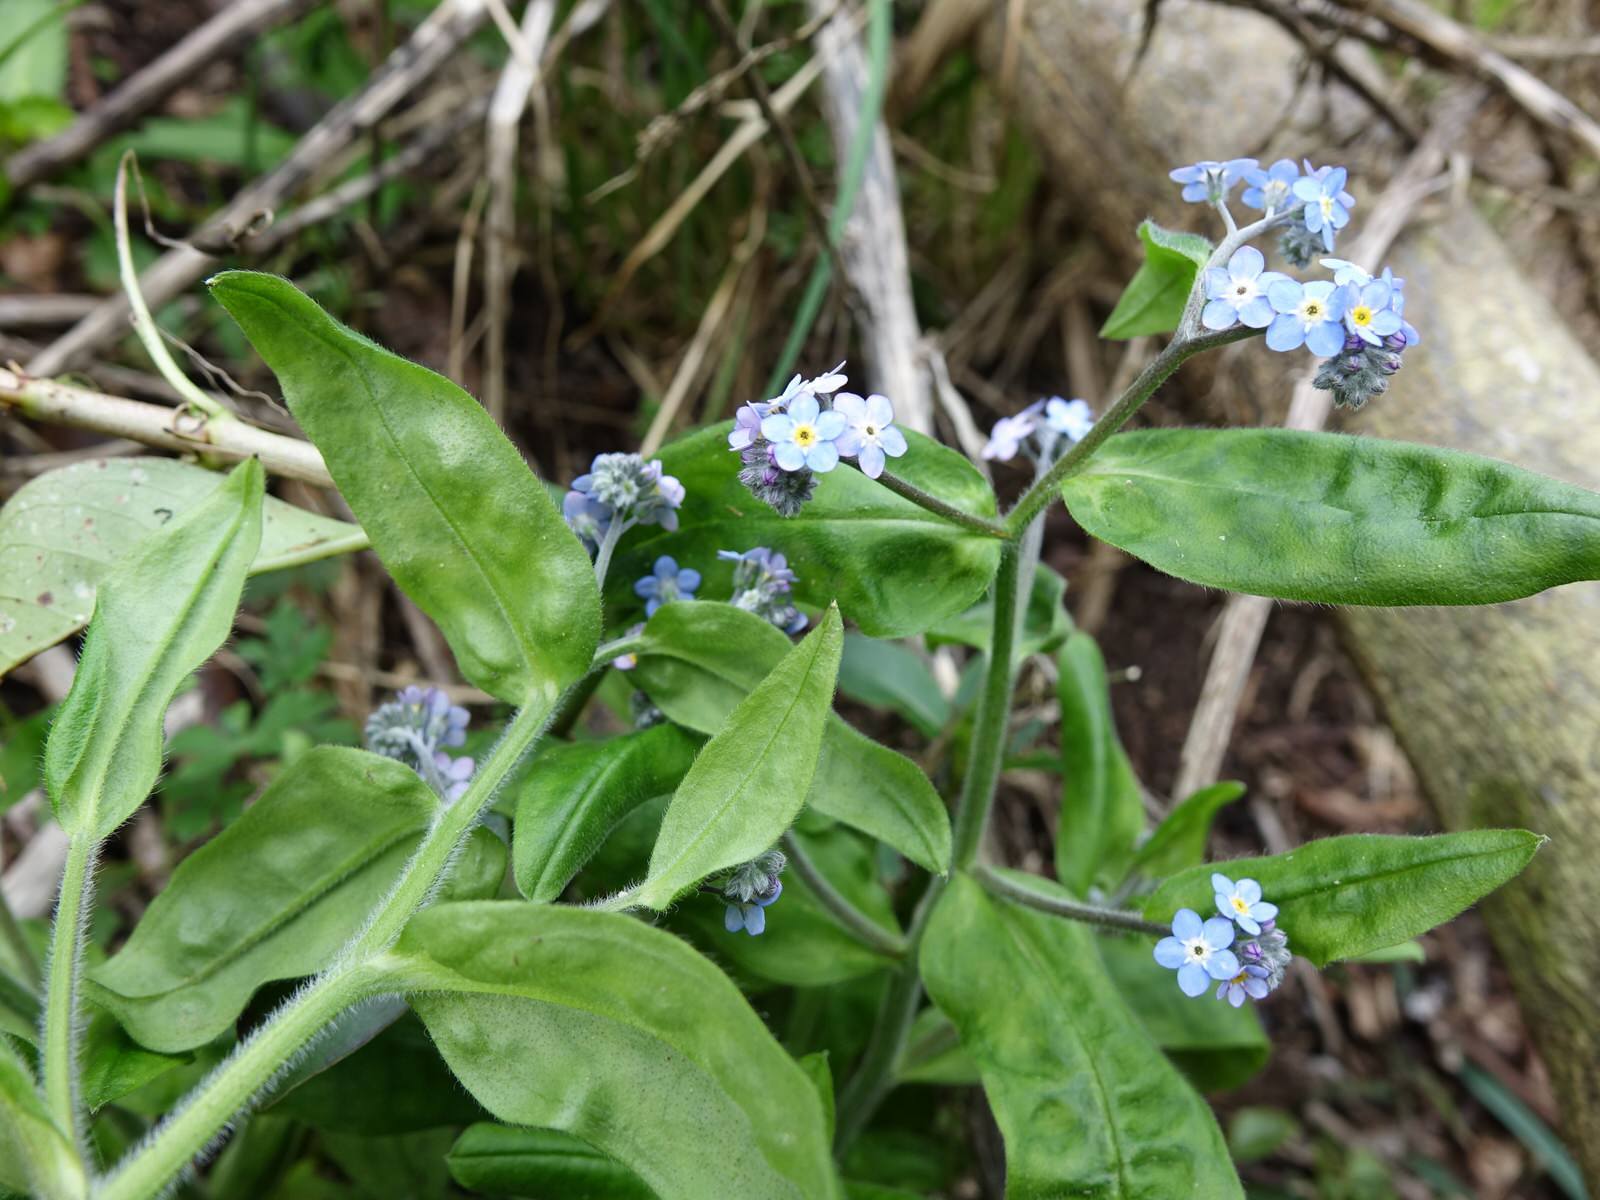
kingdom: Plantae
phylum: Tracheophyta
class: Magnoliopsida
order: Boraginales
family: Boraginaceae
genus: Myosotis
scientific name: Myosotis sylvatica
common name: Wood forget-me-not
